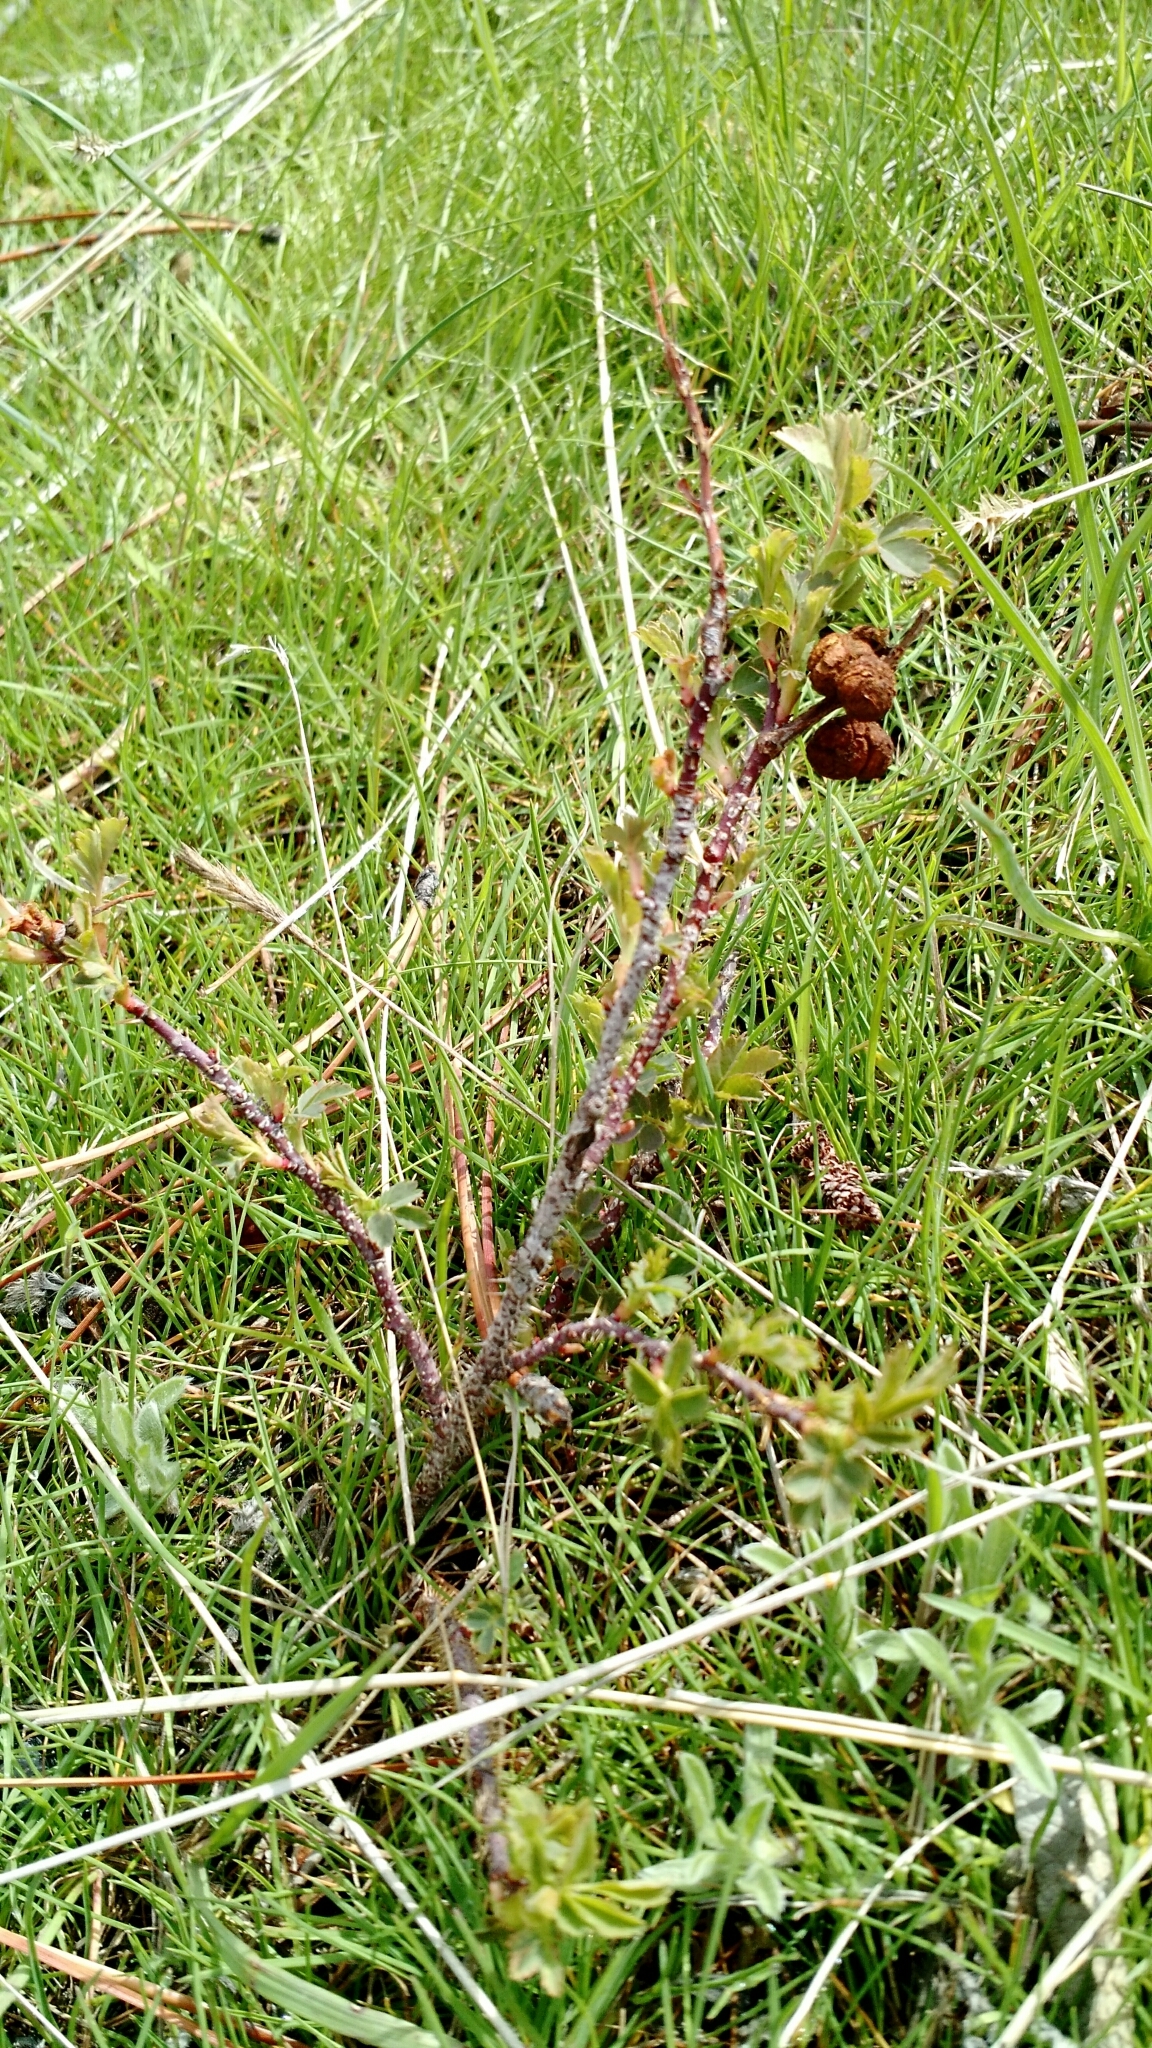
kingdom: Animalia
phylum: Arthropoda
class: Insecta
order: Hymenoptera
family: Cynipidae
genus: Diplolepis
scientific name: Diplolepis ignota
